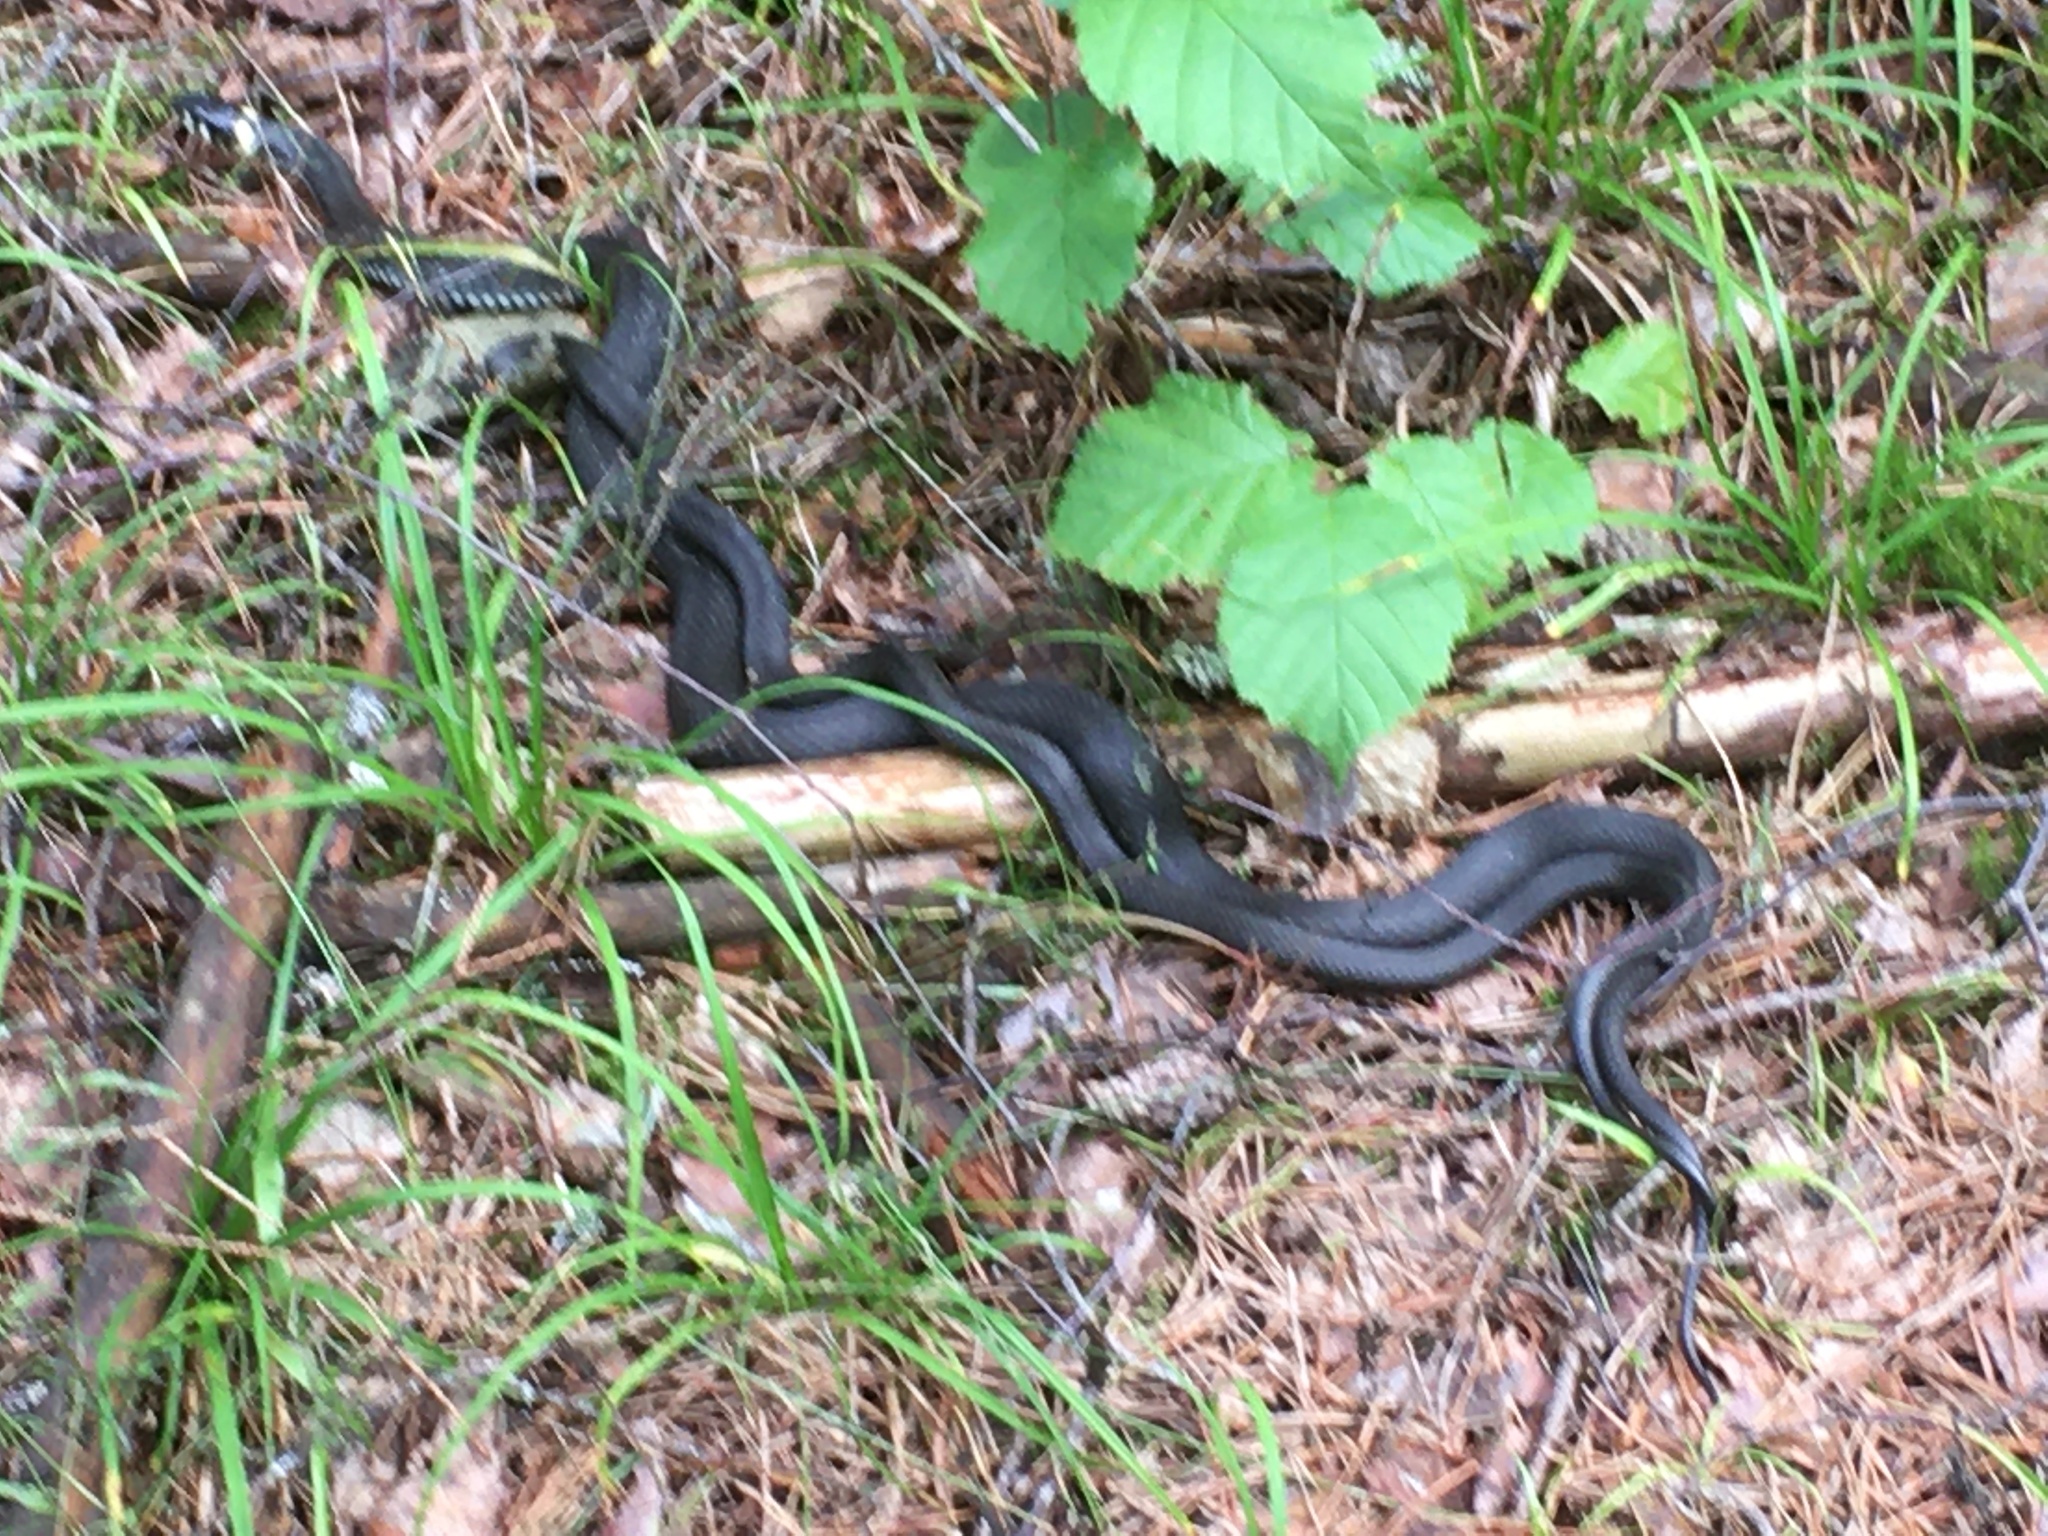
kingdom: Animalia
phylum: Chordata
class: Squamata
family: Colubridae
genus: Natrix
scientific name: Natrix natrix
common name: Grass snake
